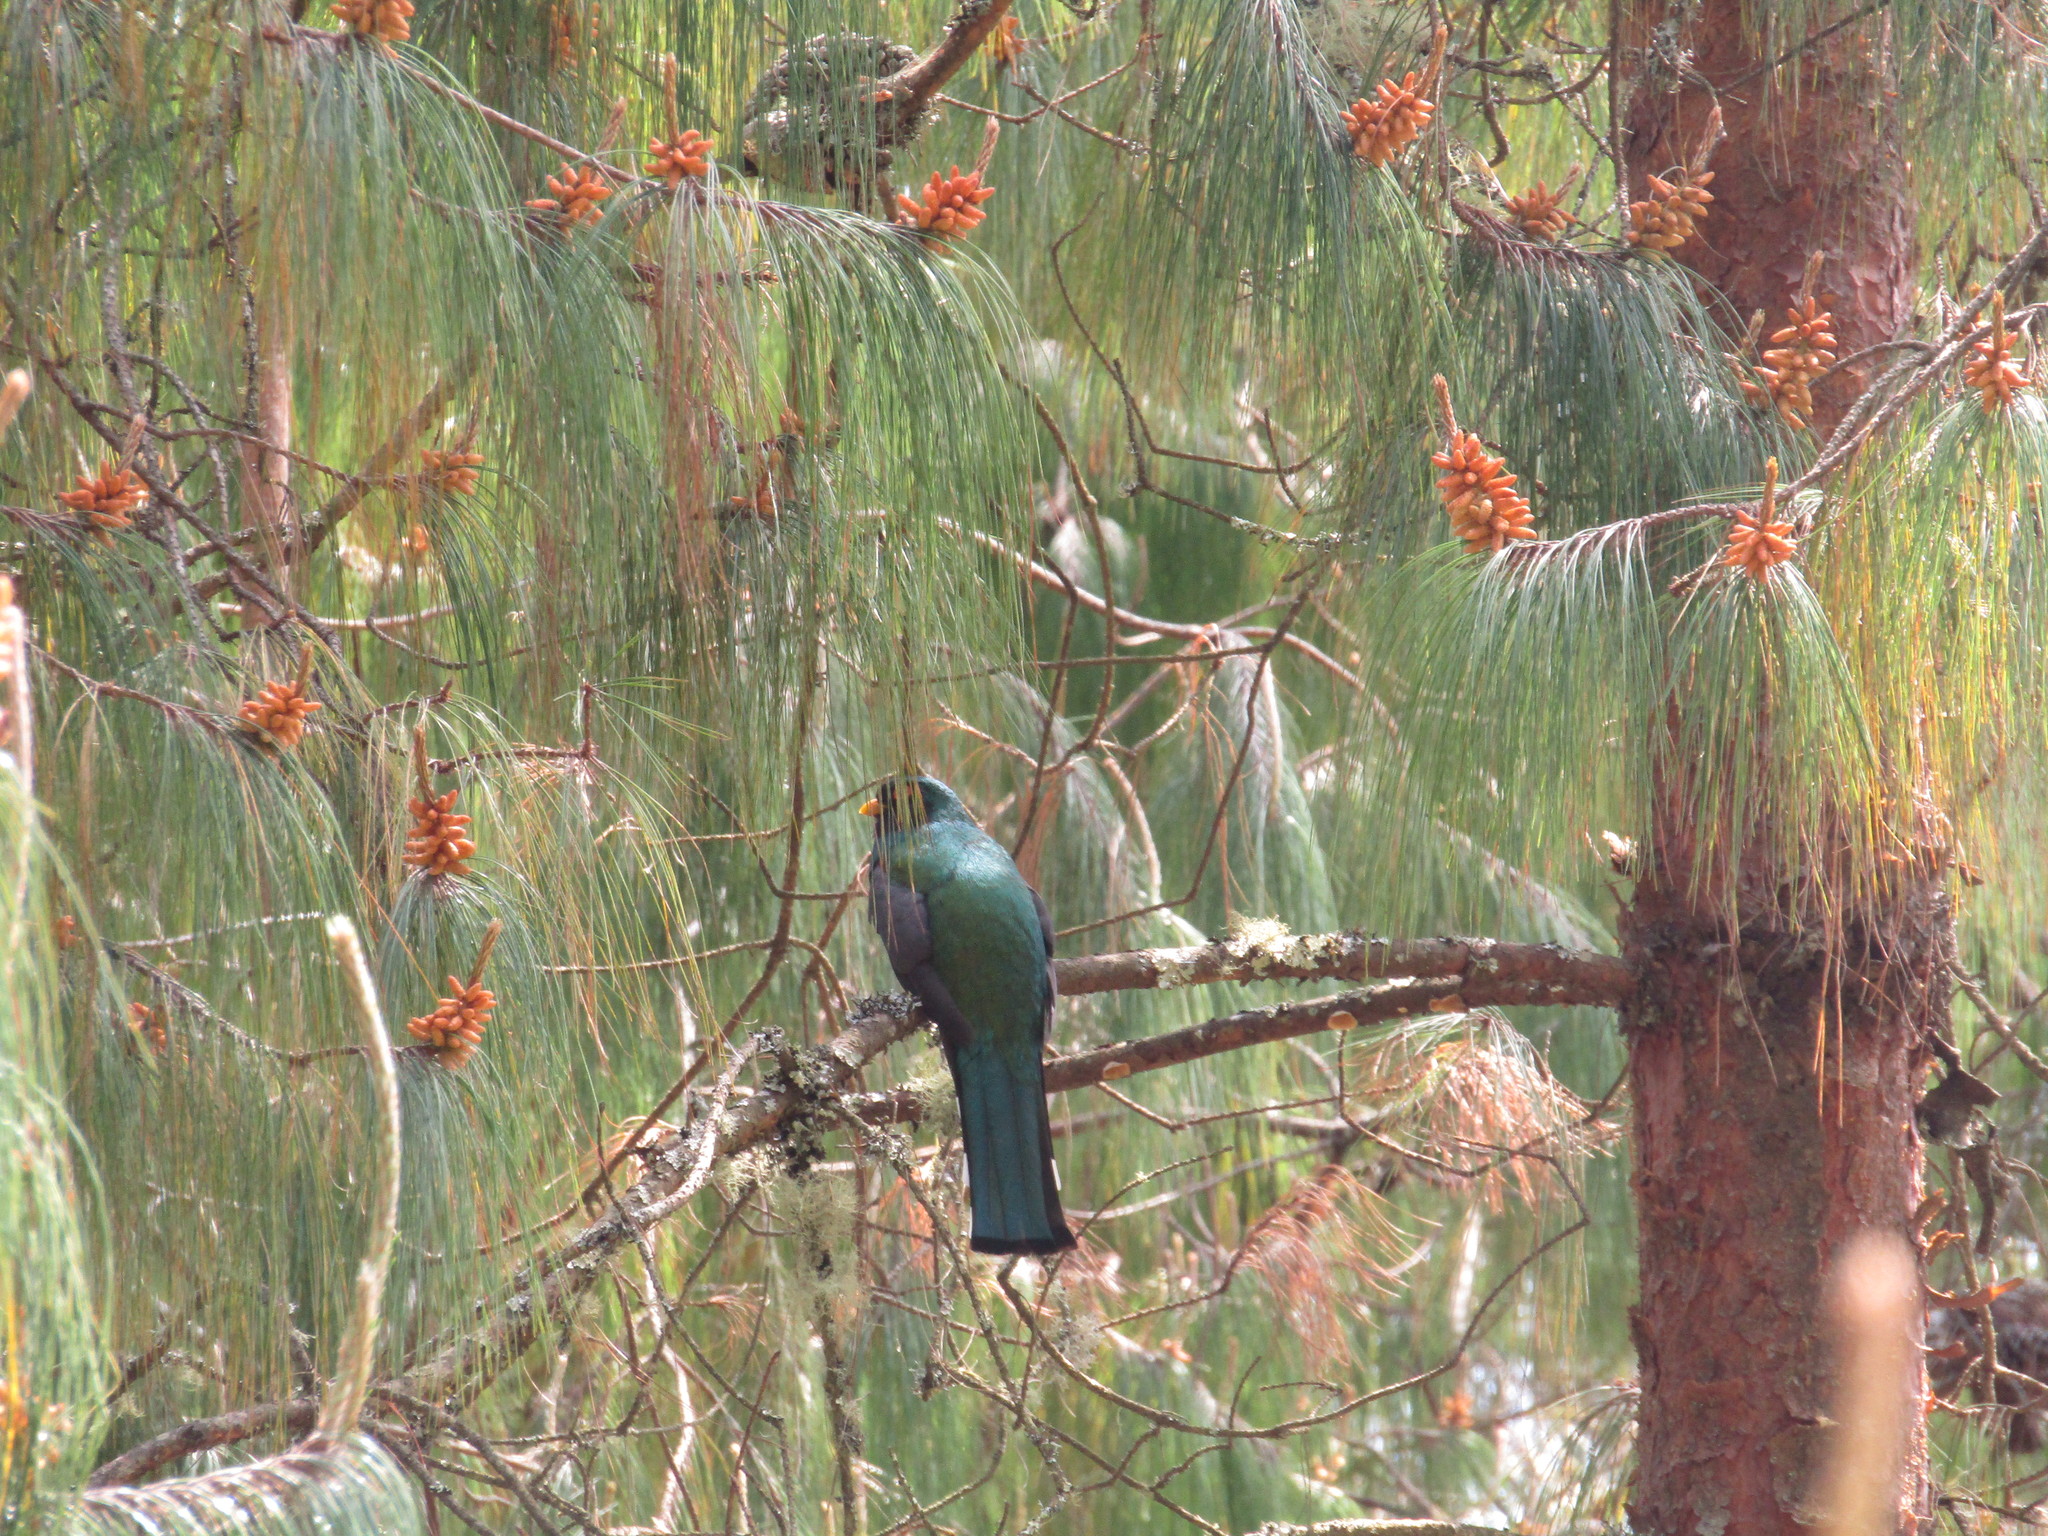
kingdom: Animalia
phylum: Chordata
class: Aves
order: Trogoniformes
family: Trogonidae
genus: Trogon
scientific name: Trogon mexicanus
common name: Mountain trogon
